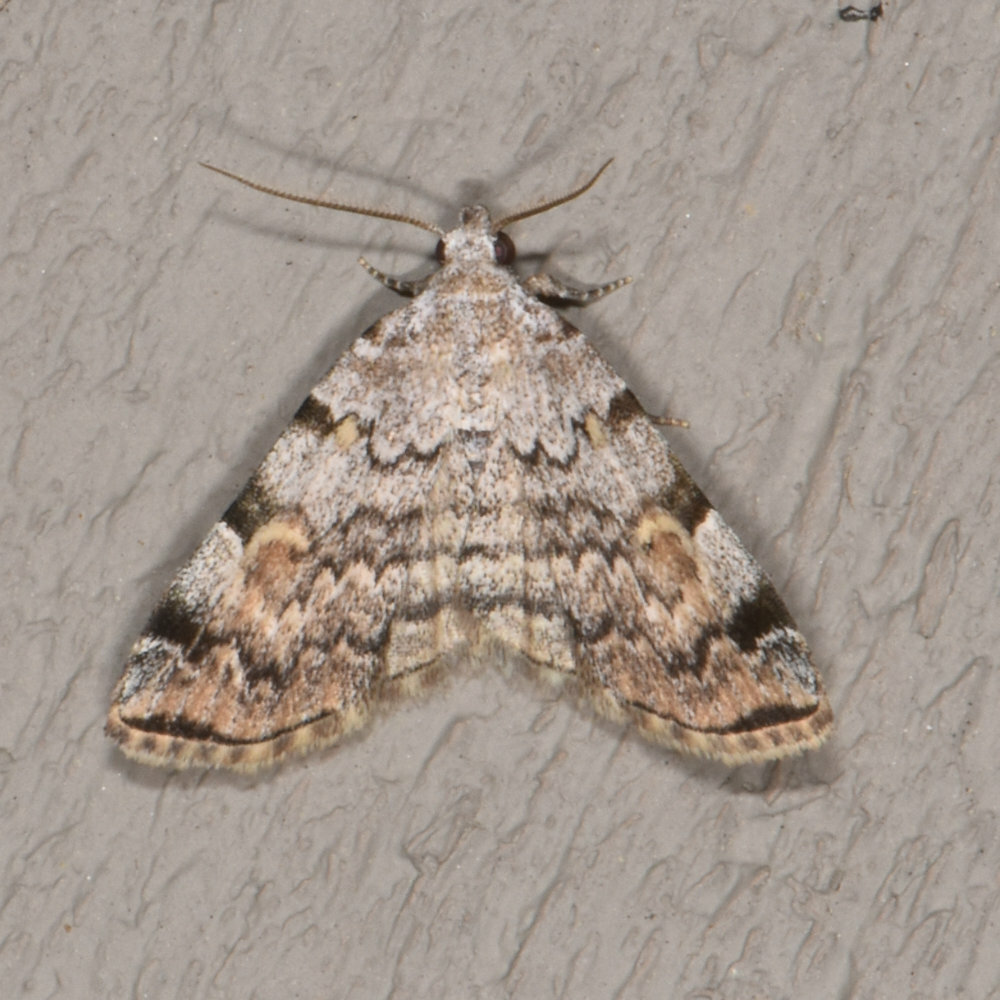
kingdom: Animalia
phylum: Arthropoda
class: Insecta
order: Lepidoptera
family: Erebidae
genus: Idia
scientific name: Idia americalis
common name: American idia moth
